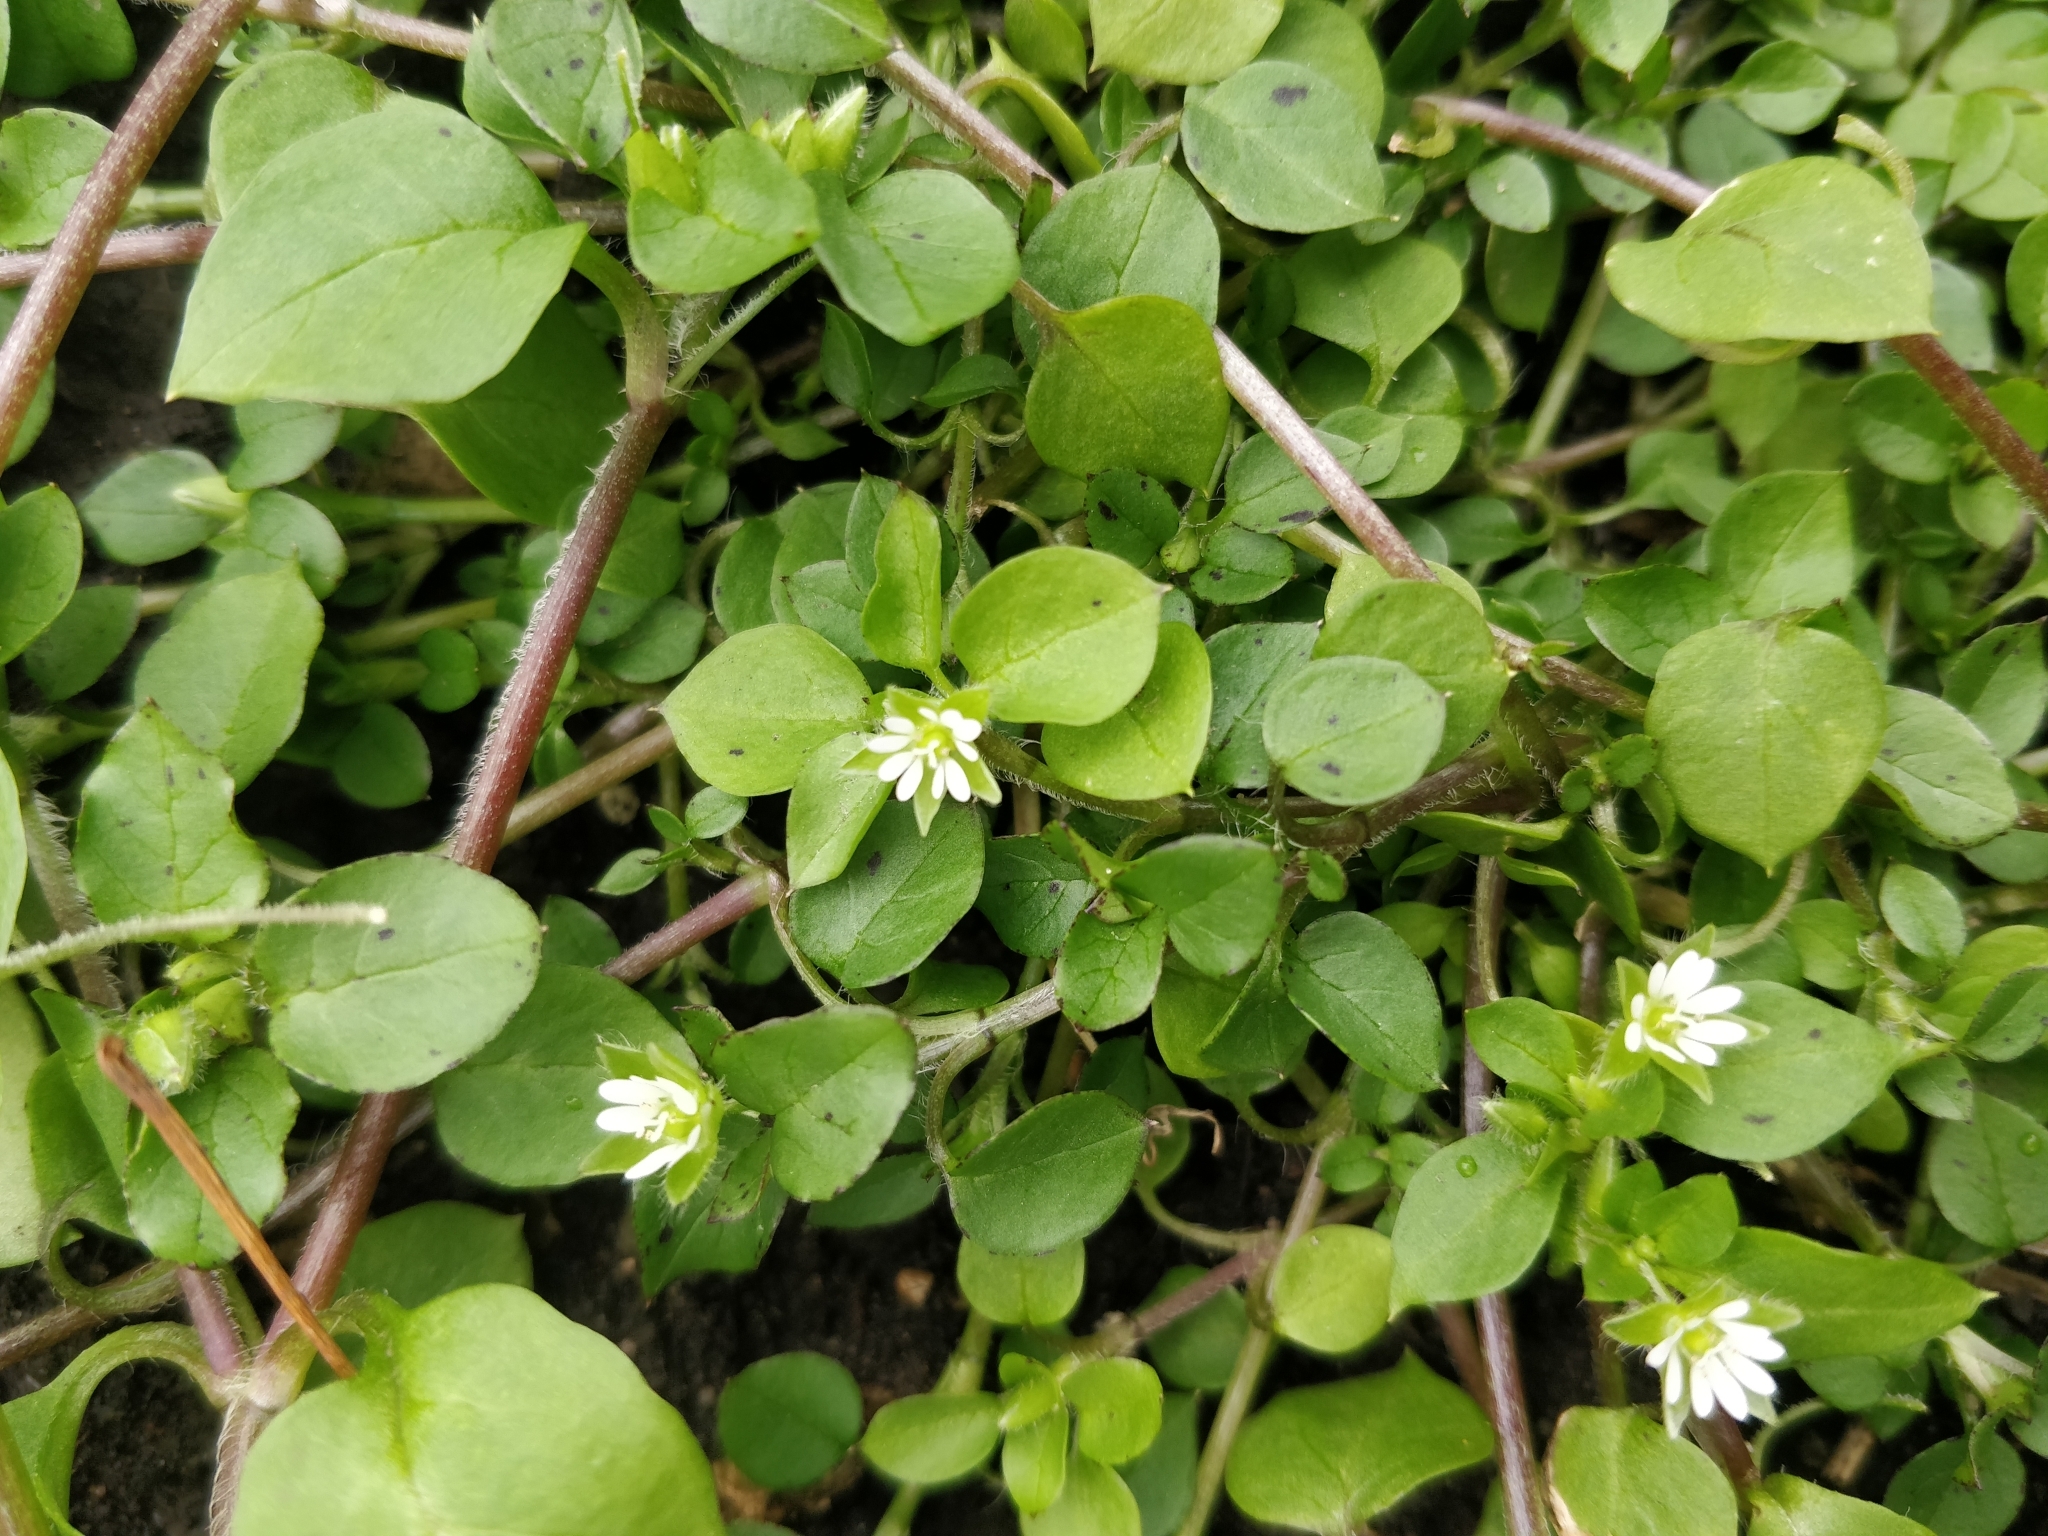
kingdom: Plantae
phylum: Tracheophyta
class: Magnoliopsida
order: Caryophyllales
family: Caryophyllaceae
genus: Stellaria
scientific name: Stellaria media
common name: Common chickweed
